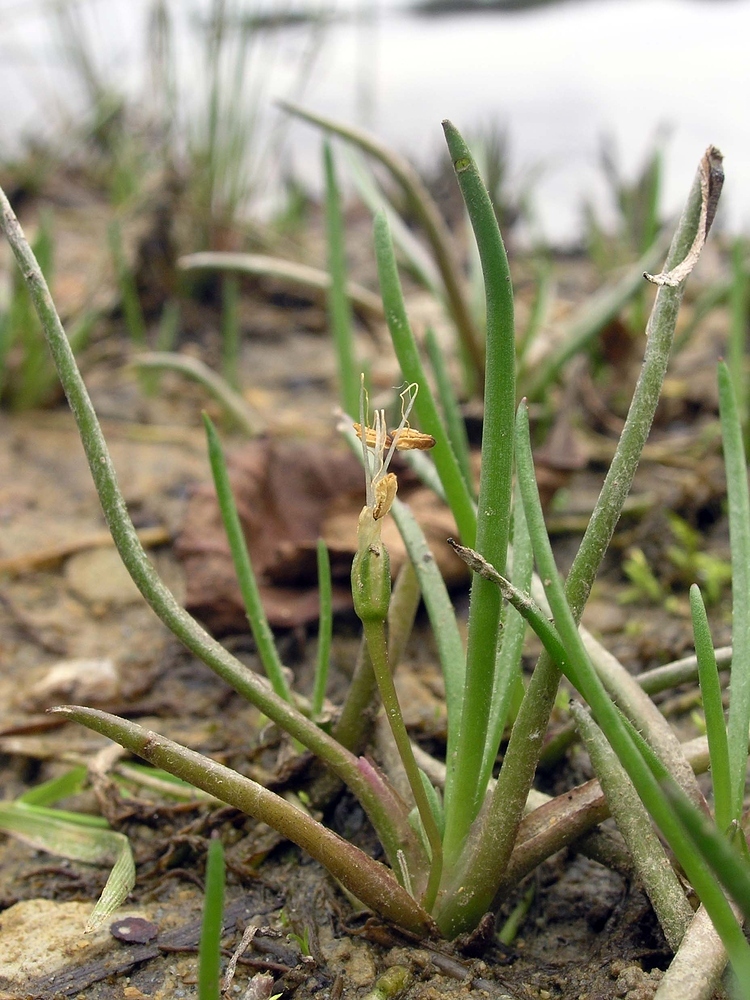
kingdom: Plantae
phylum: Tracheophyta
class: Magnoliopsida
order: Lamiales
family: Plantaginaceae
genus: Littorella
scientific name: Littorella uniflora
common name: Shoreweed
